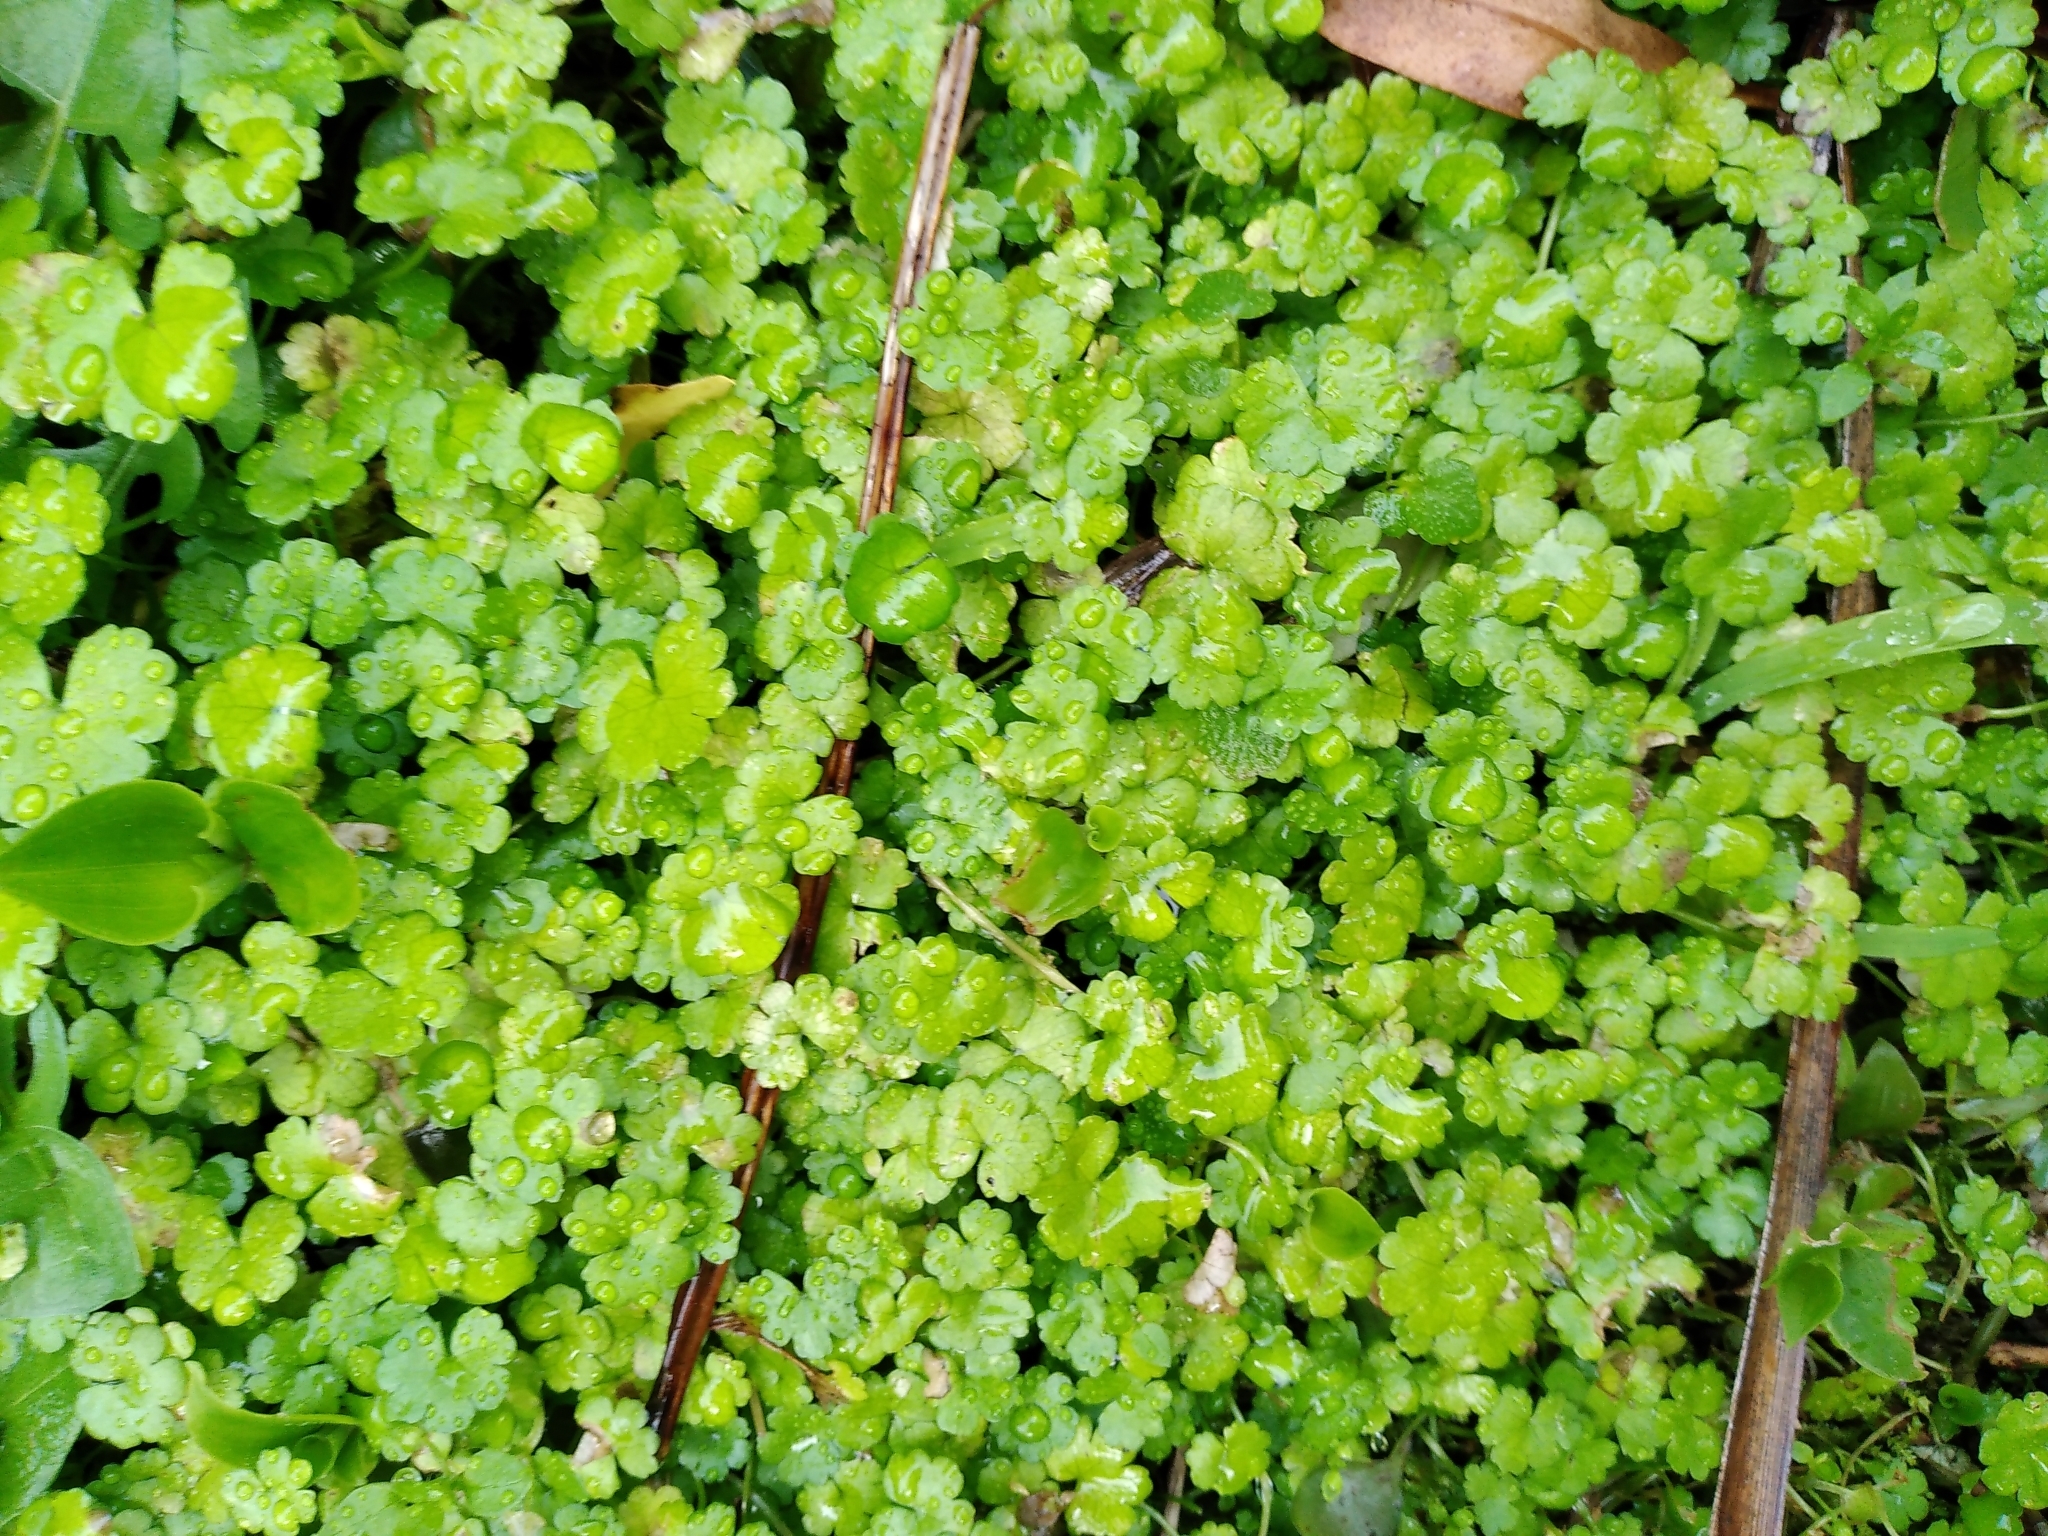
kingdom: Plantae
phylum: Tracheophyta
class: Magnoliopsida
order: Apiales
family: Araliaceae
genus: Hydrocotyle
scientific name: Hydrocotyle heteromeria
